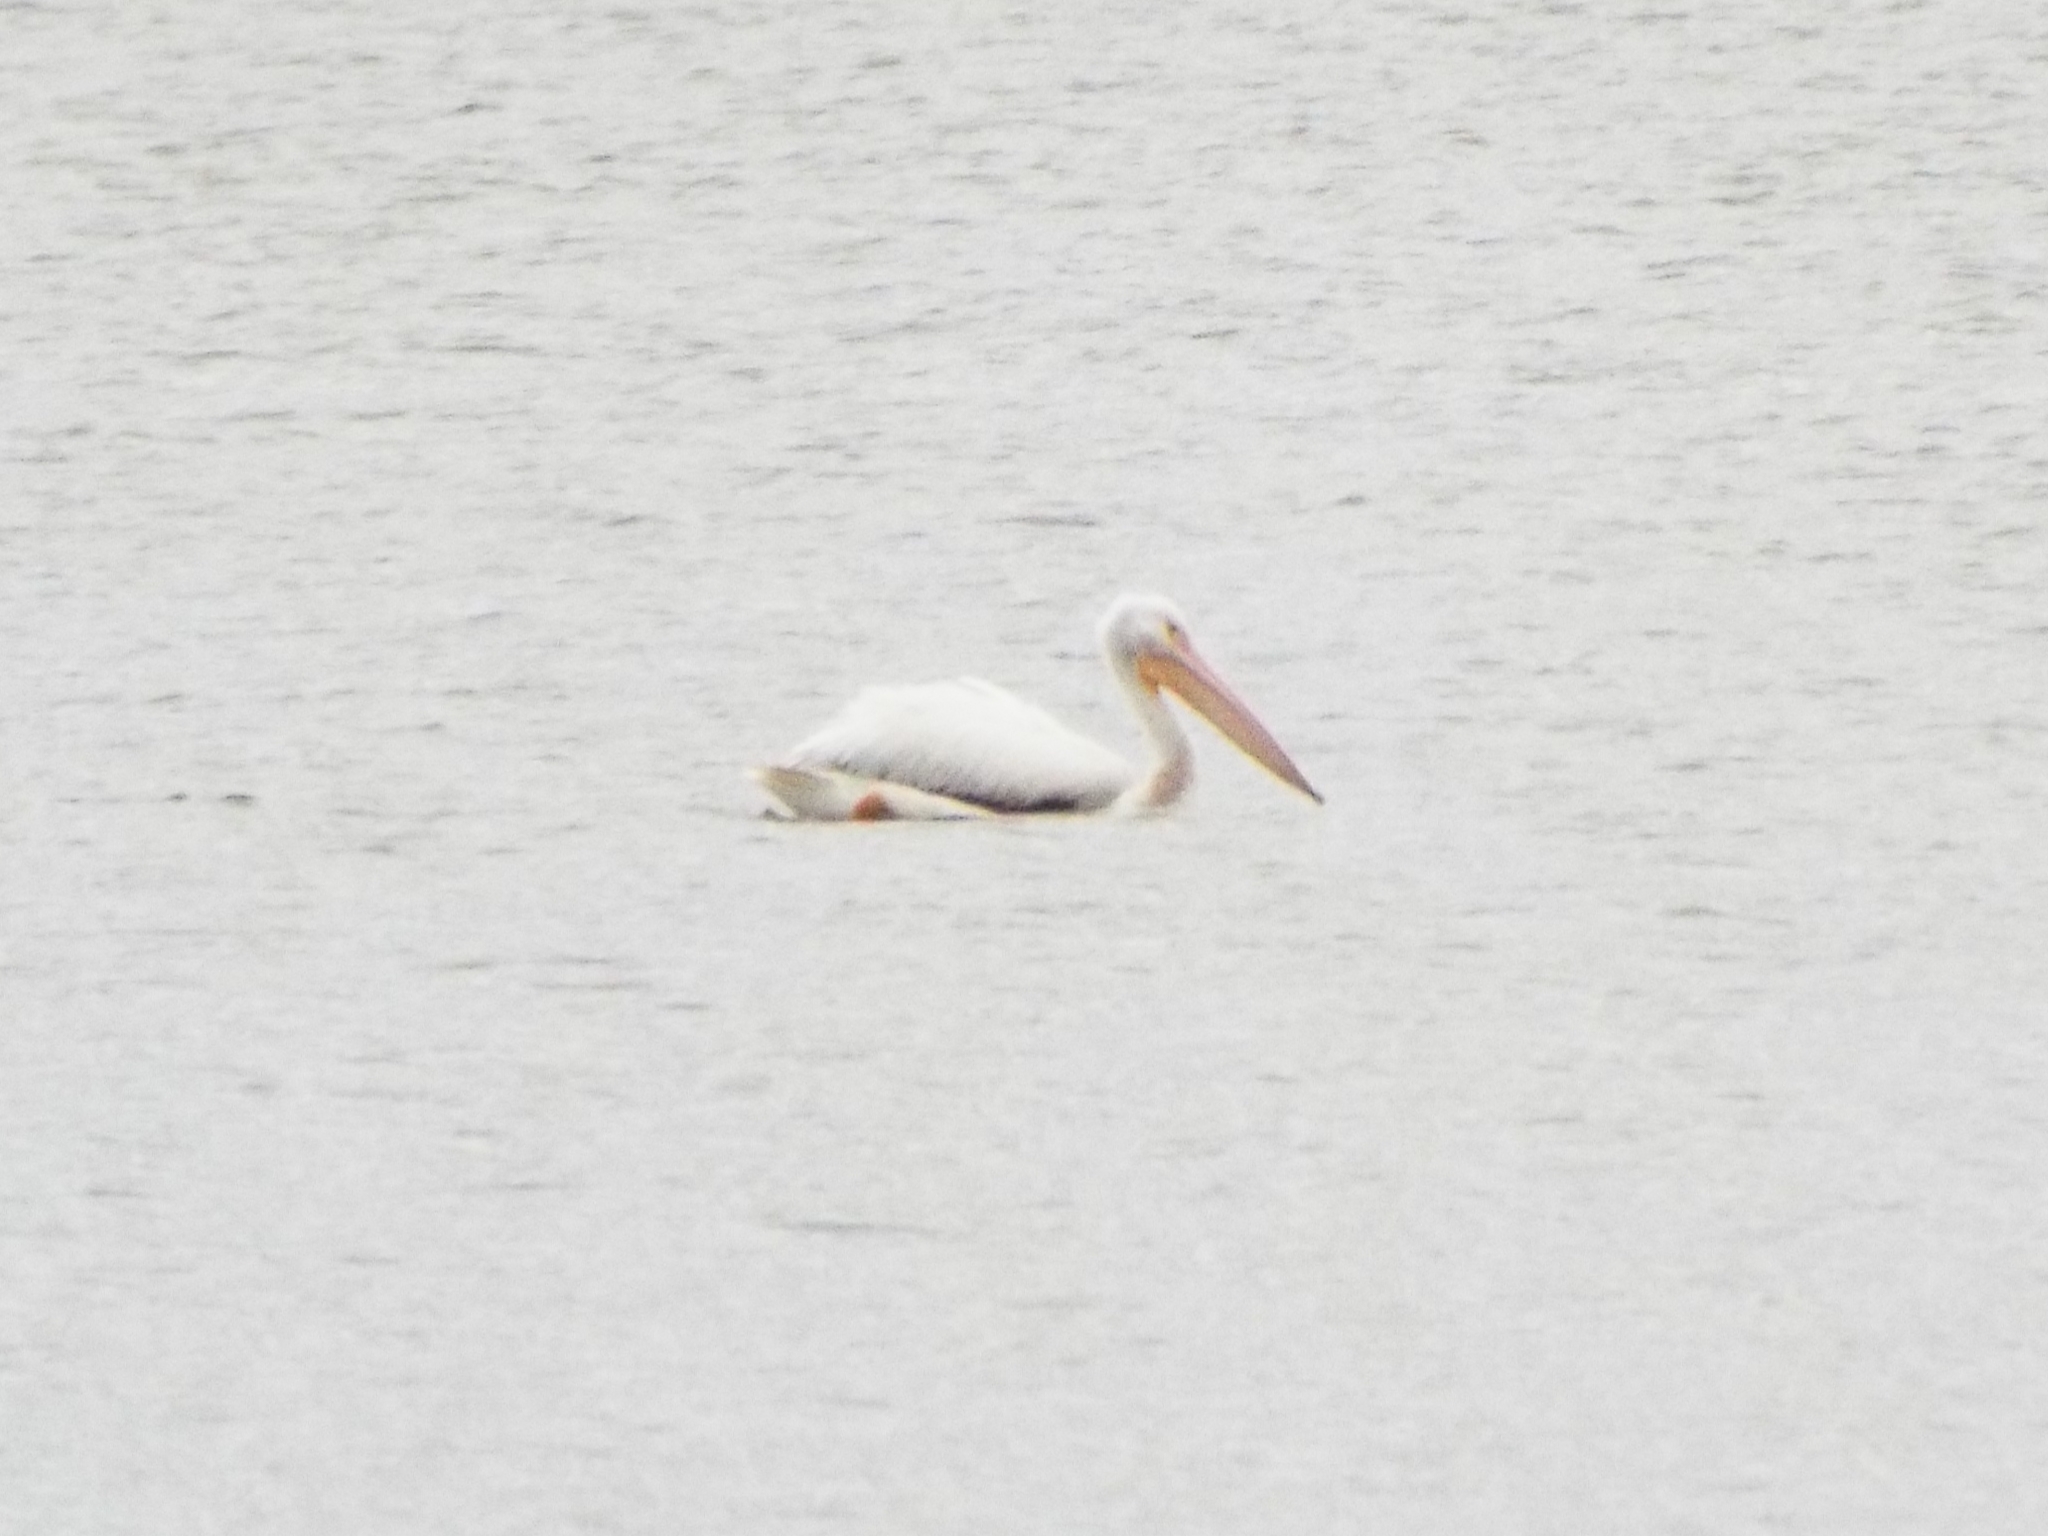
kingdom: Animalia
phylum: Chordata
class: Aves
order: Pelecaniformes
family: Pelecanidae
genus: Pelecanus
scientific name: Pelecanus erythrorhynchos
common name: American white pelican
